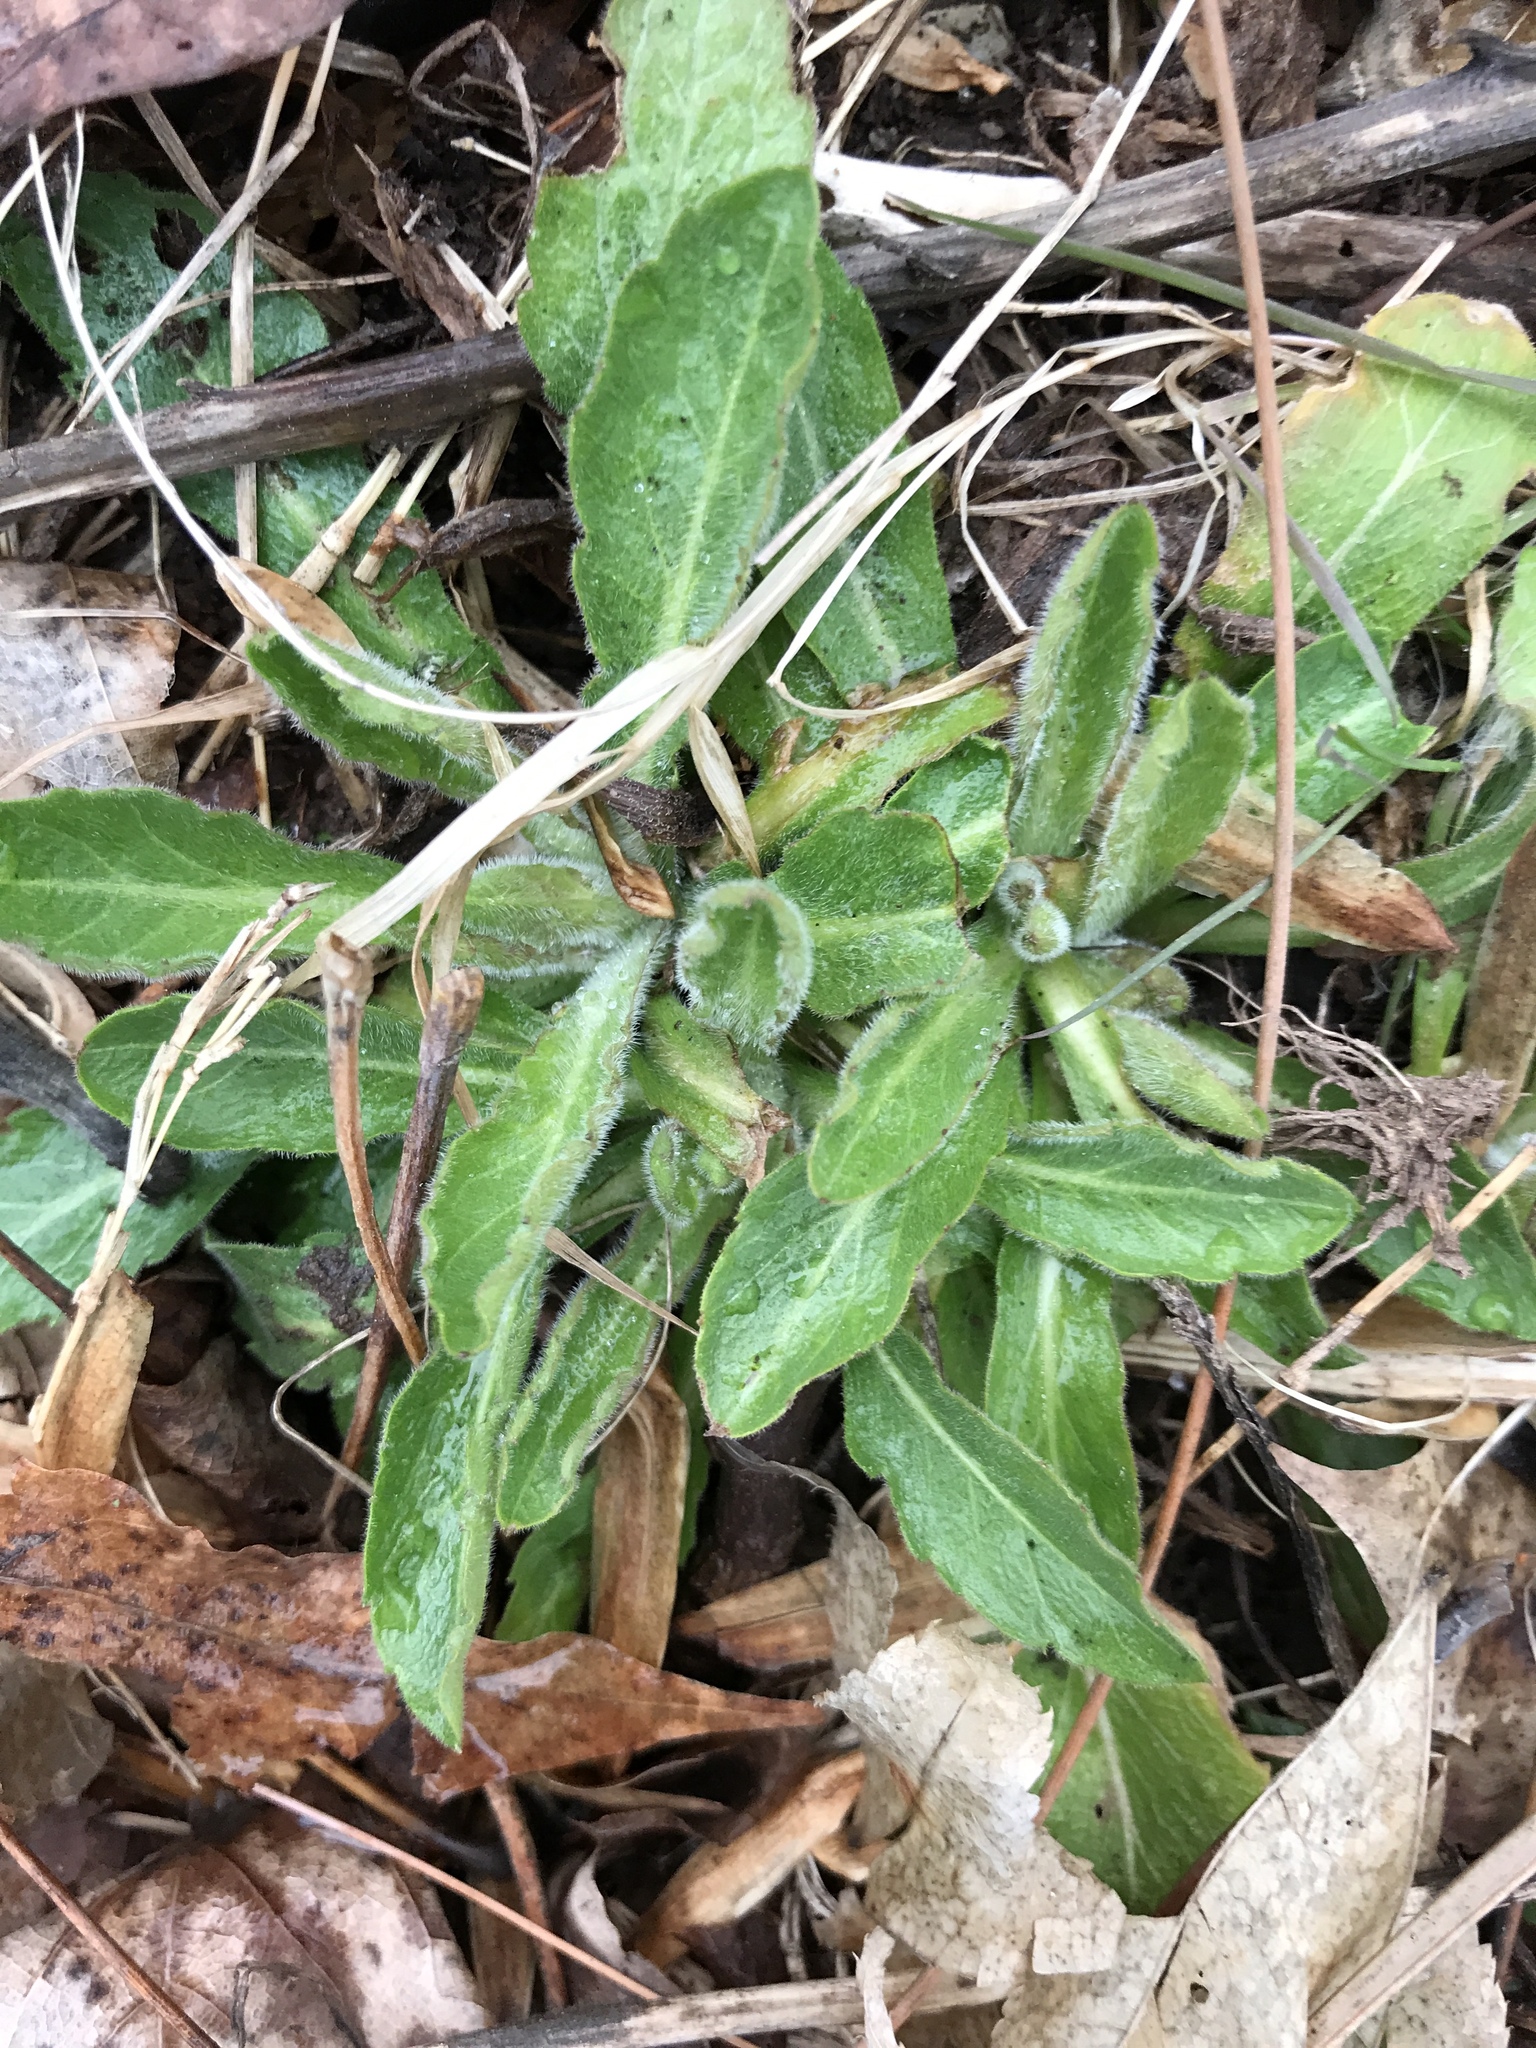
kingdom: Plantae
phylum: Tracheophyta
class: Magnoliopsida
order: Asterales
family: Asteraceae
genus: Erigeron
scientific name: Erigeron
